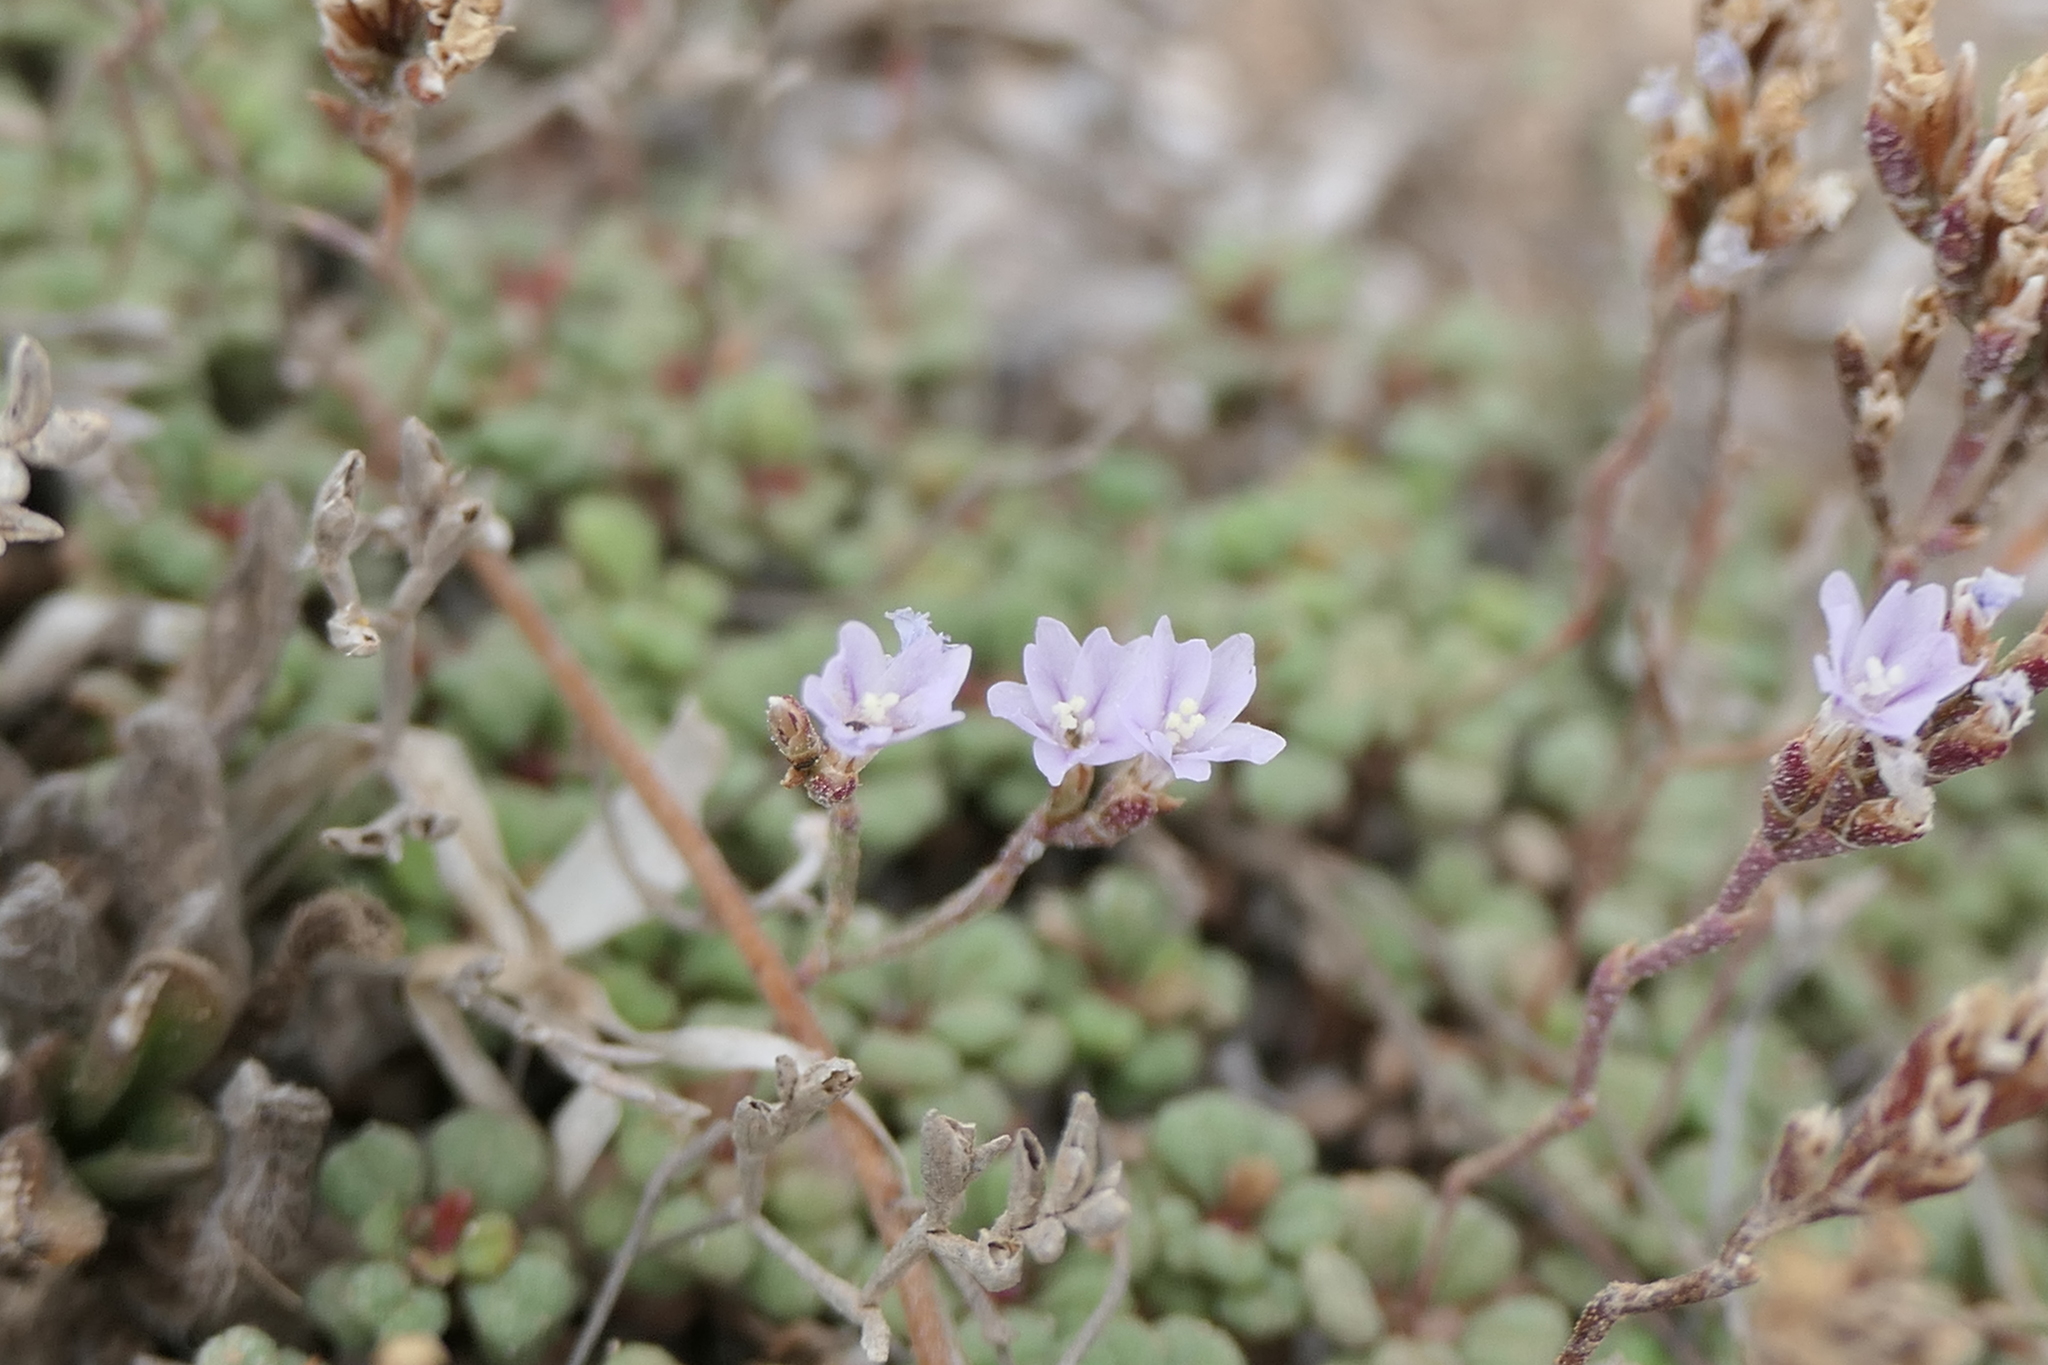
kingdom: Plantae
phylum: Tracheophyta
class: Magnoliopsida
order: Caryophyllales
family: Plumbaginaceae
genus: Limonium
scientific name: Limonium minutum
